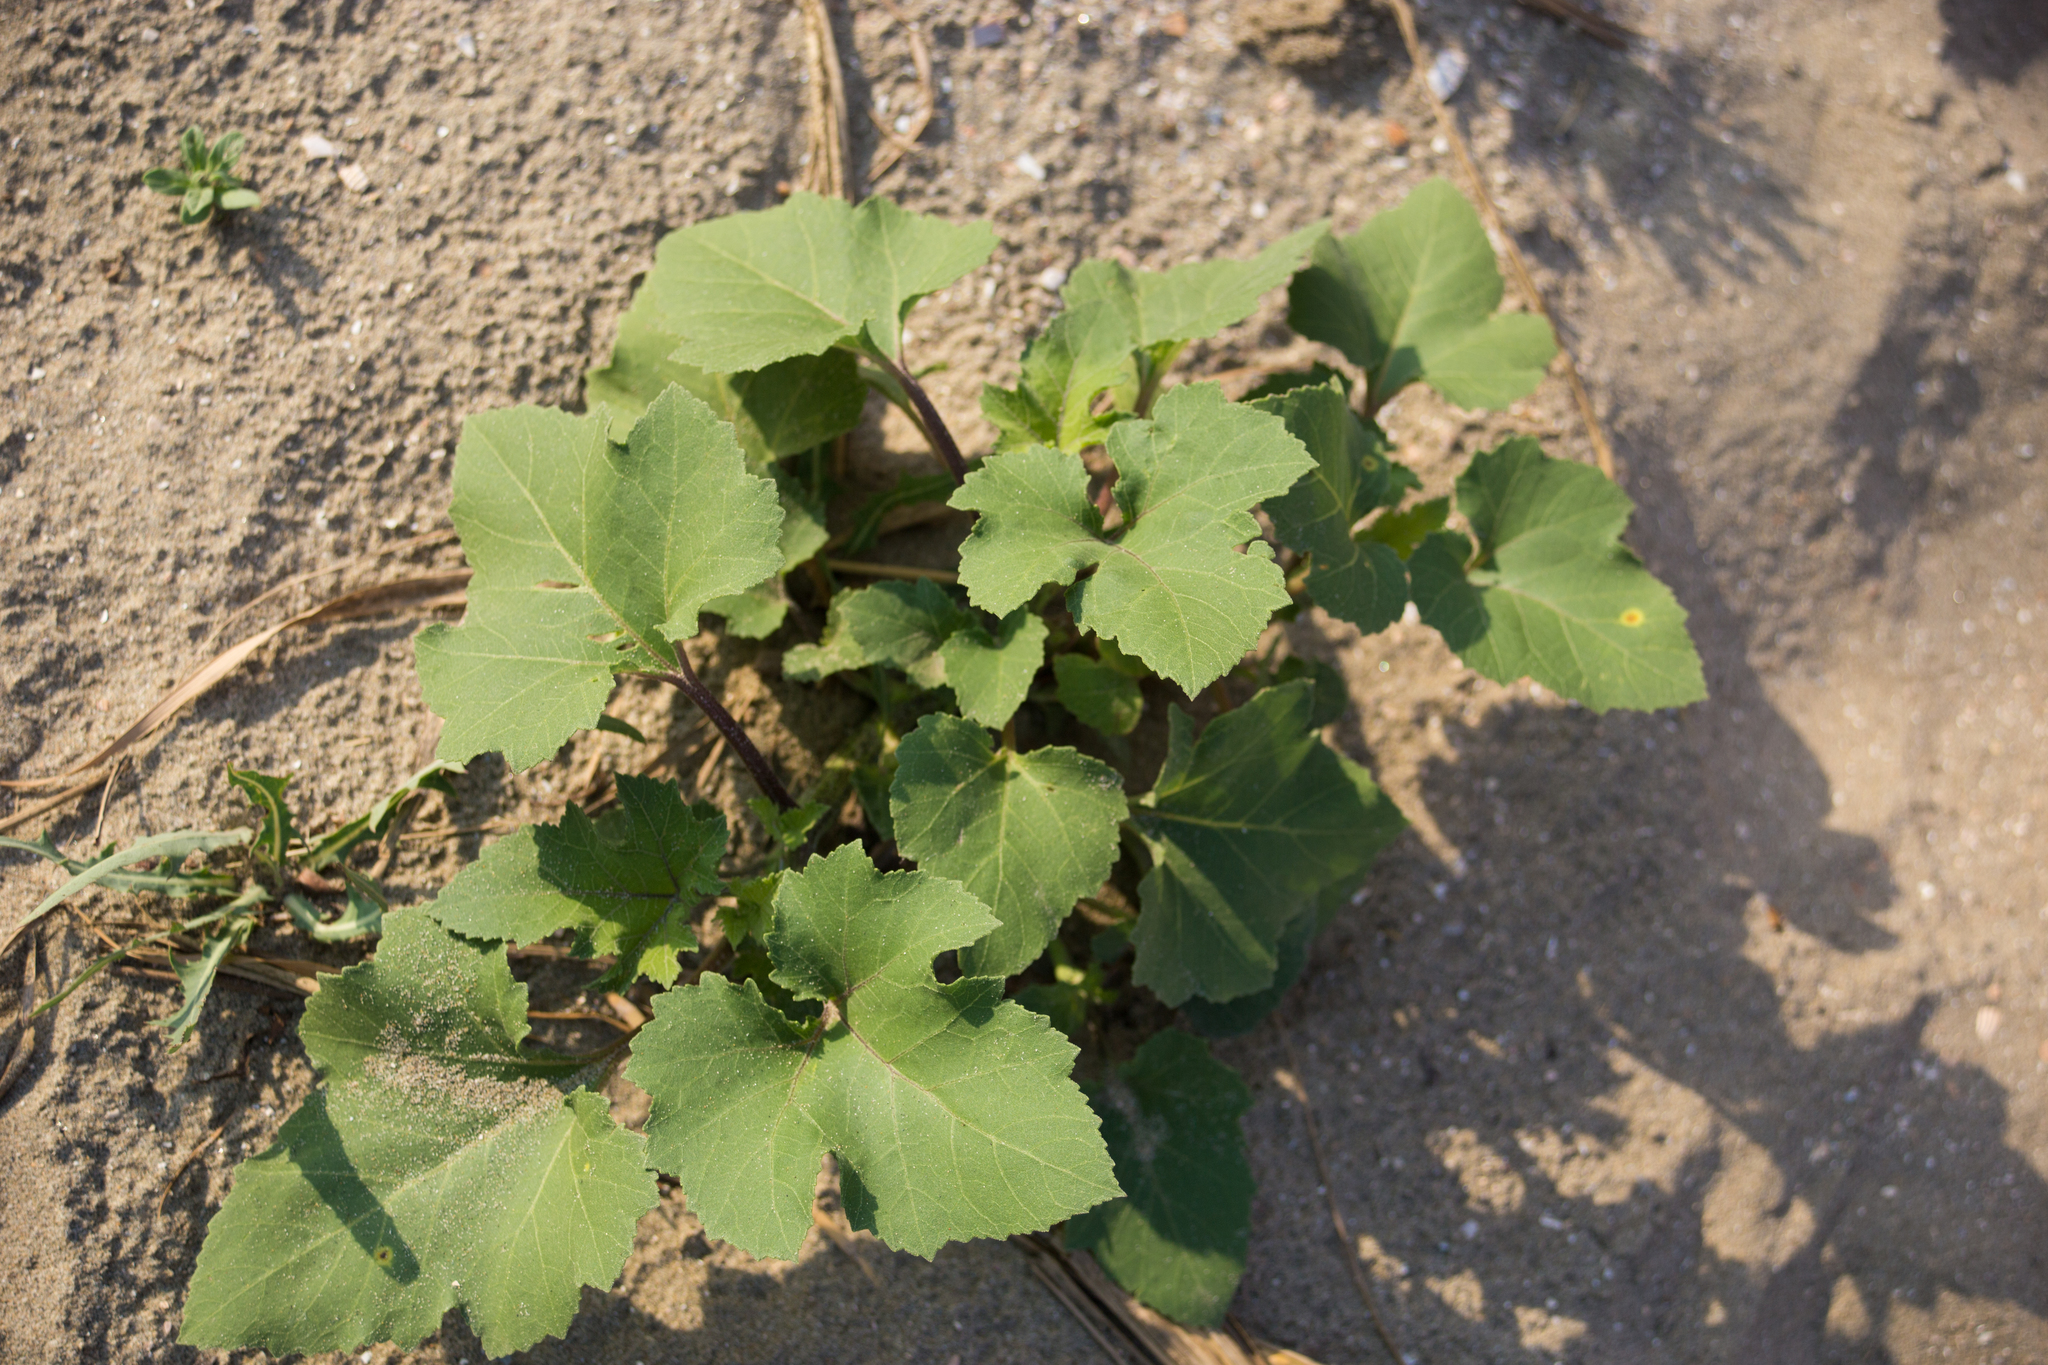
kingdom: Plantae
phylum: Tracheophyta
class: Magnoliopsida
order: Asterales
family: Asteraceae
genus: Xanthium
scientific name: Xanthium orientale
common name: Californian burr
